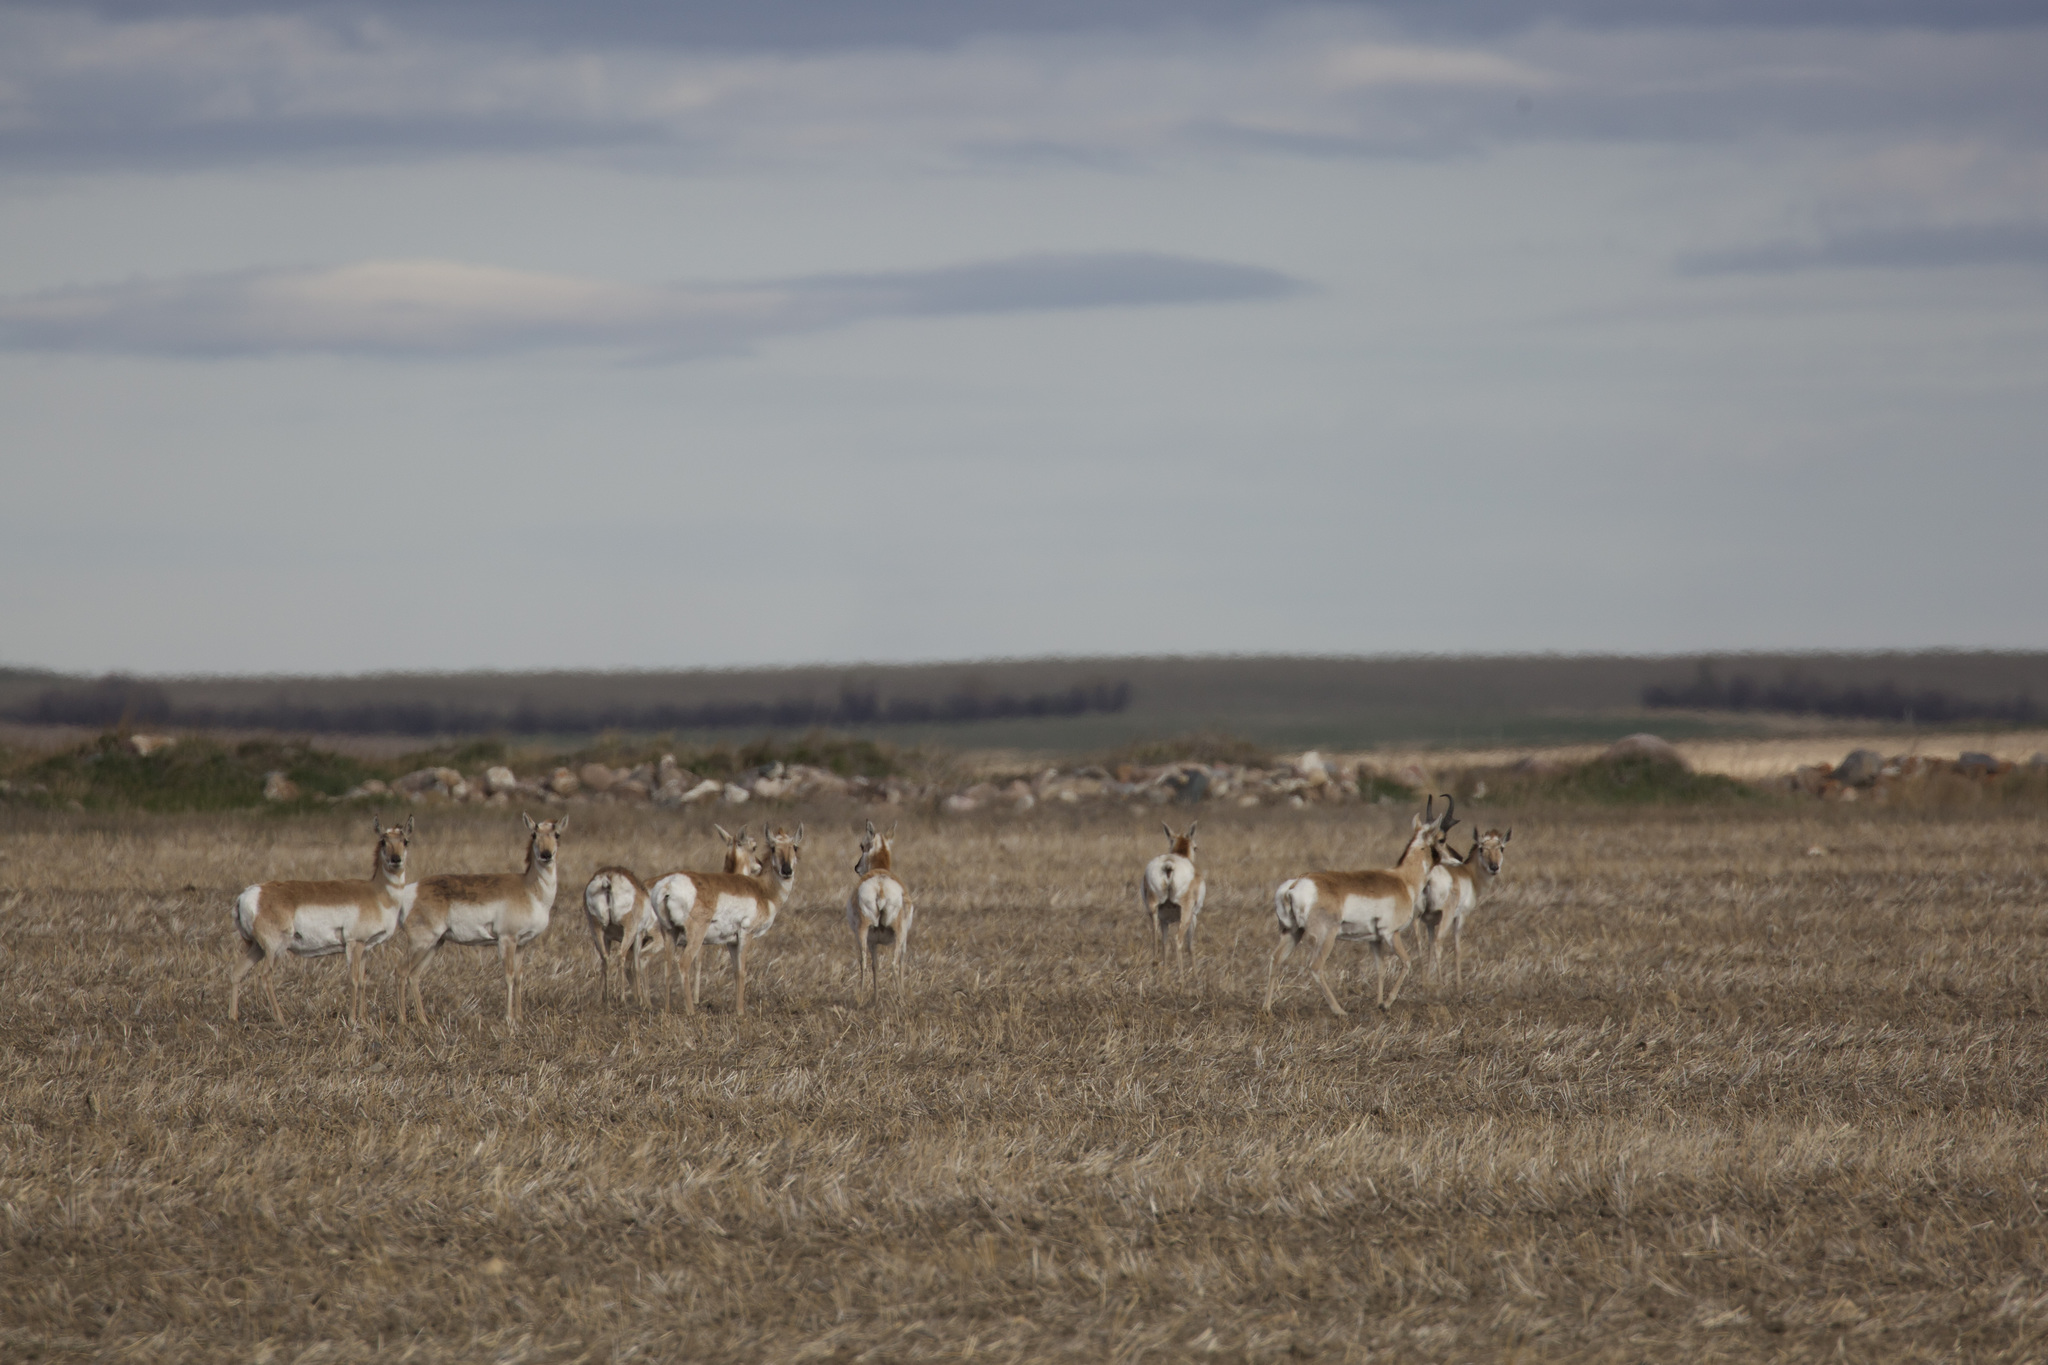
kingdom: Animalia
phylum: Chordata
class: Mammalia
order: Artiodactyla
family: Antilocapridae
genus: Antilocapra
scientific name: Antilocapra americana
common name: Pronghorn
